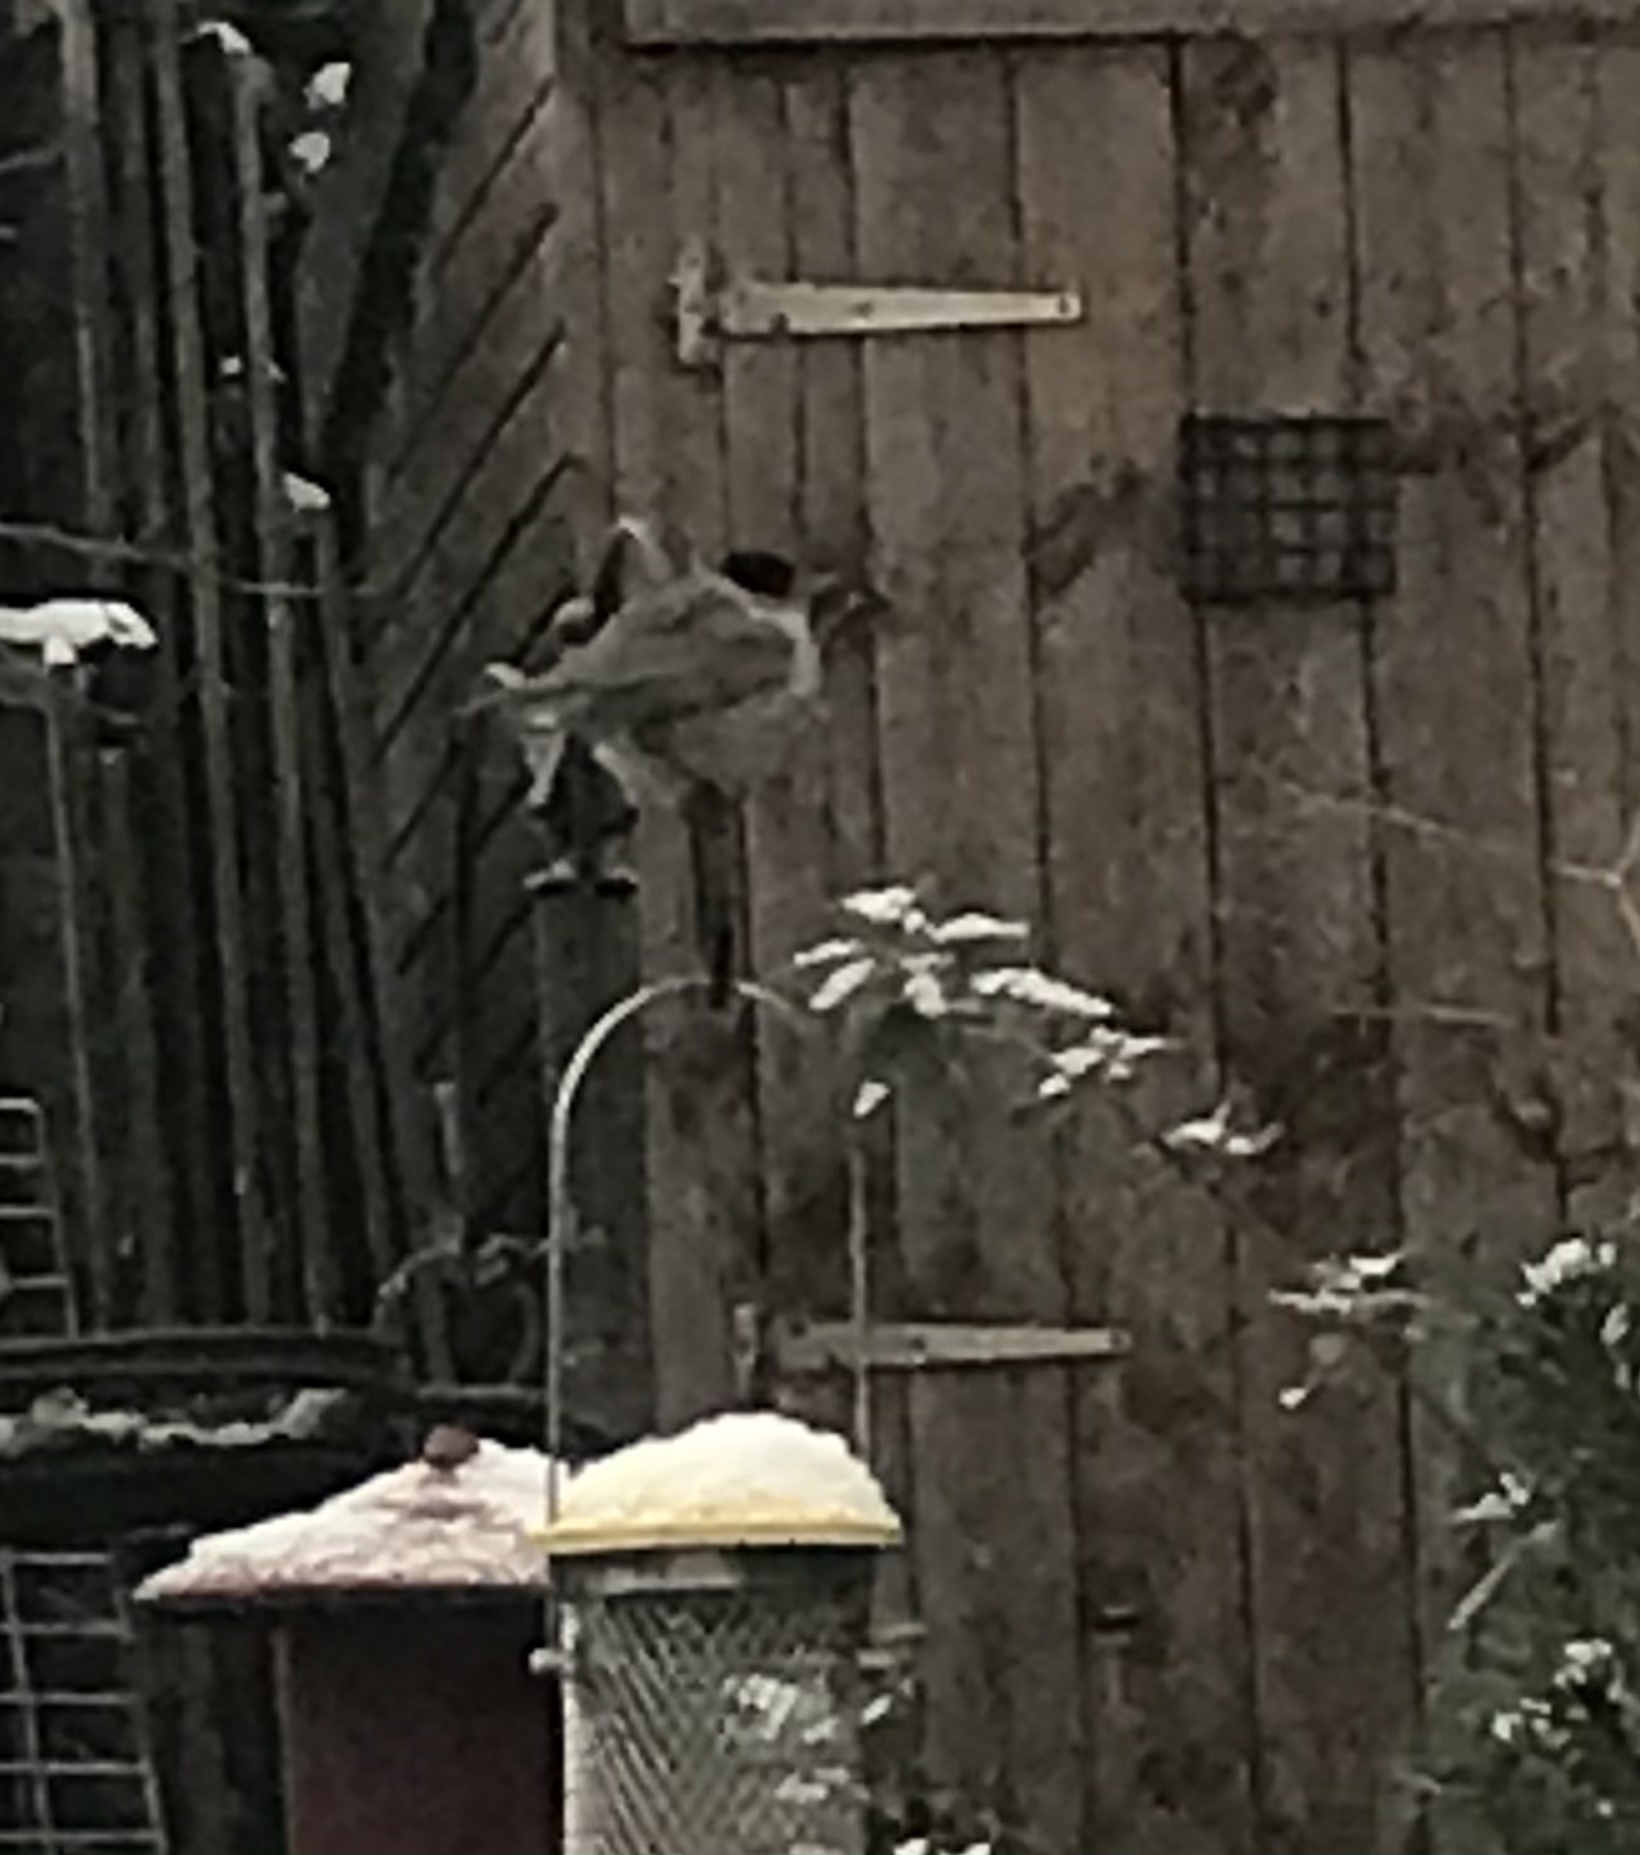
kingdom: Animalia
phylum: Chordata
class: Aves
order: Passeriformes
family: Sylviidae
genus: Sylvia
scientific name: Sylvia atricapilla
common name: Eurasian blackcap
